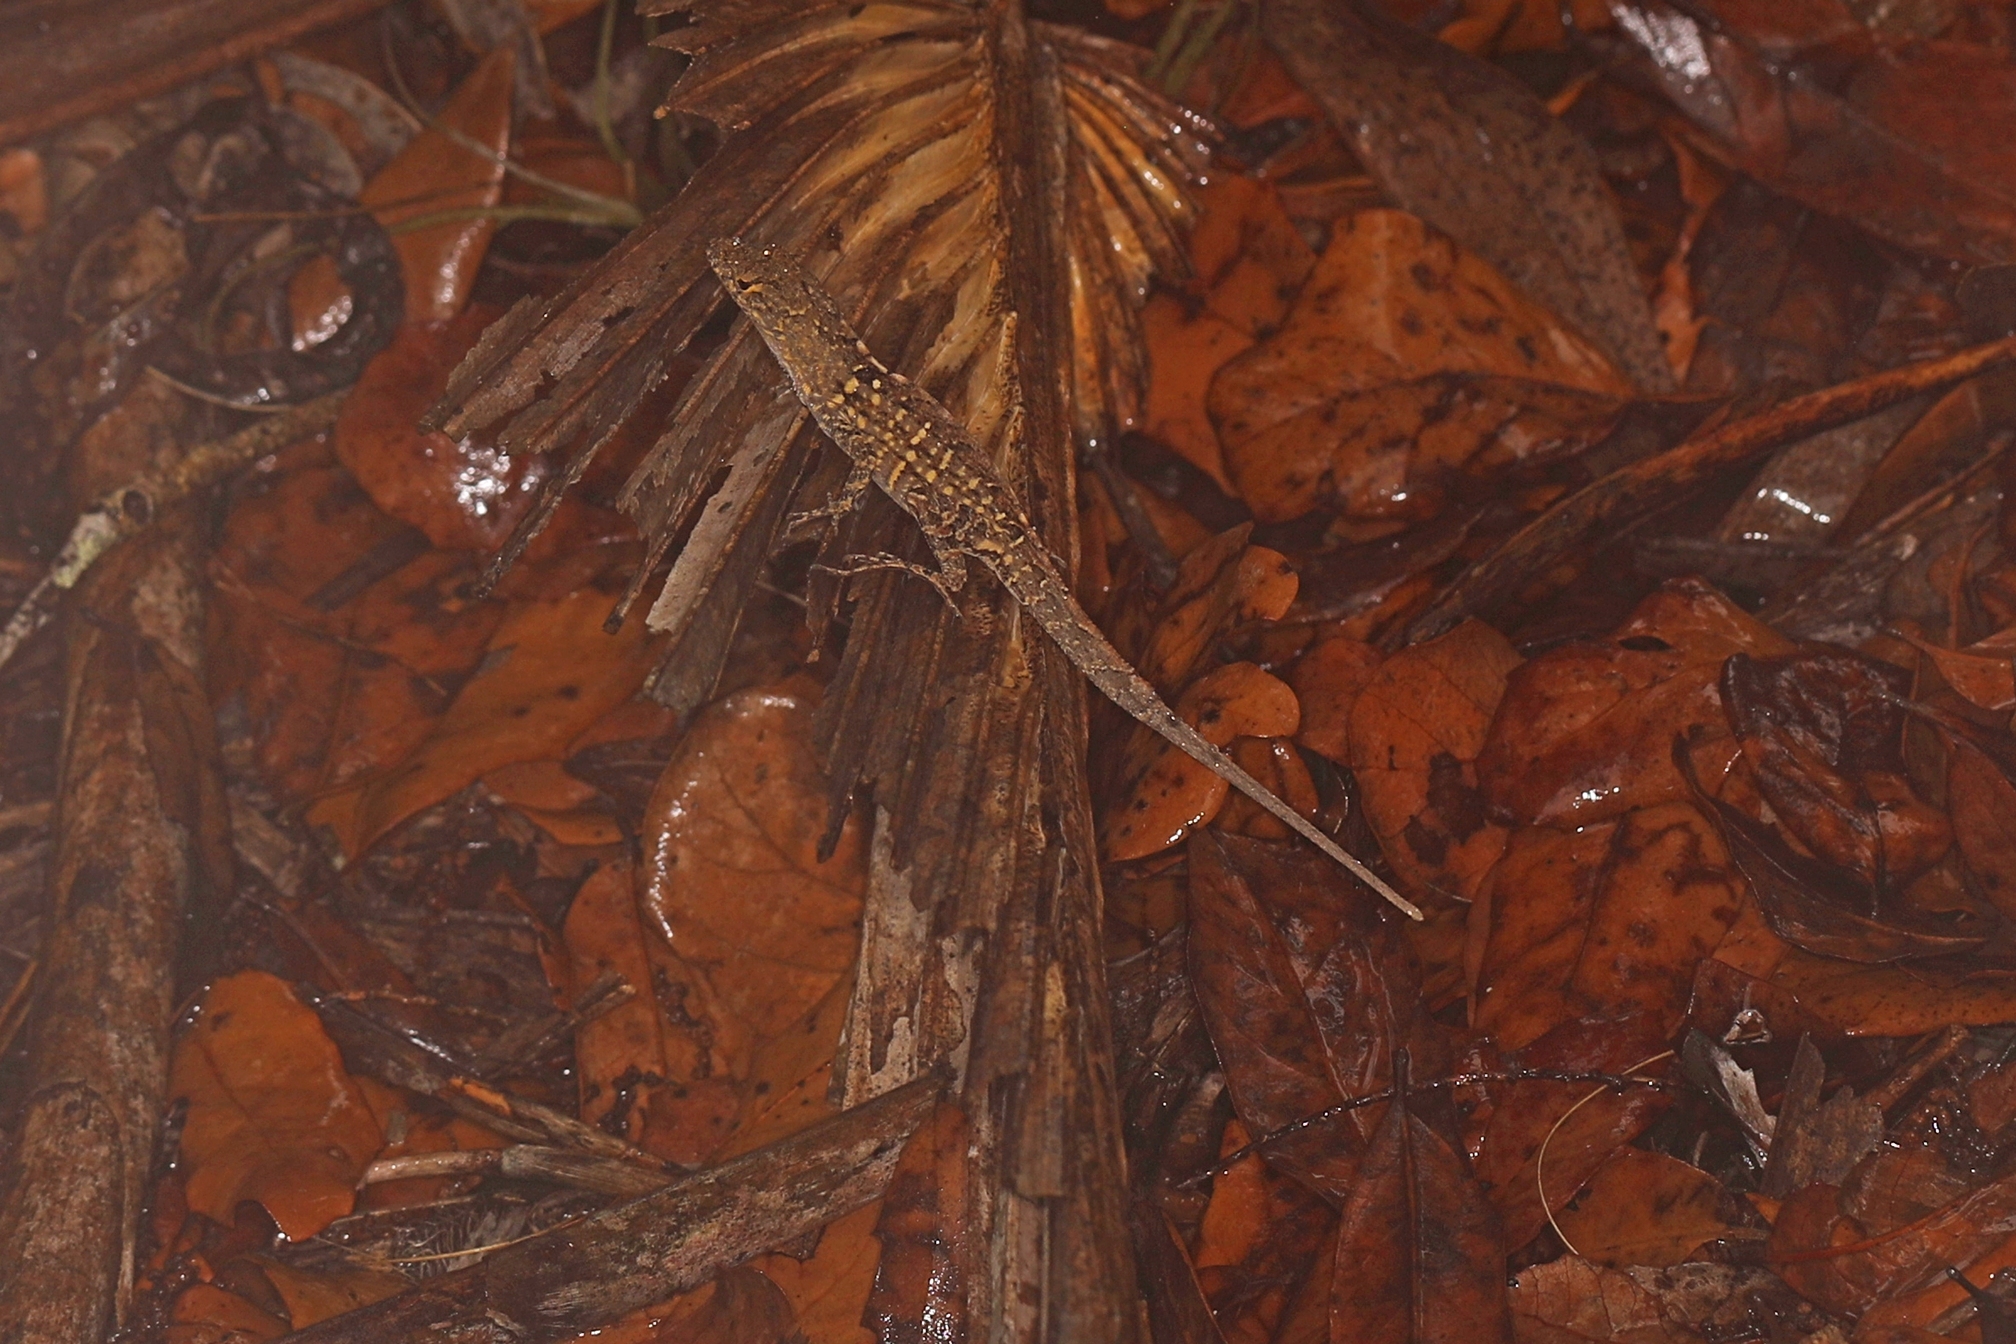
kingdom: Animalia
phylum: Chordata
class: Squamata
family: Dactyloidae
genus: Anolis
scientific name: Anolis sagrei
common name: Brown anole
